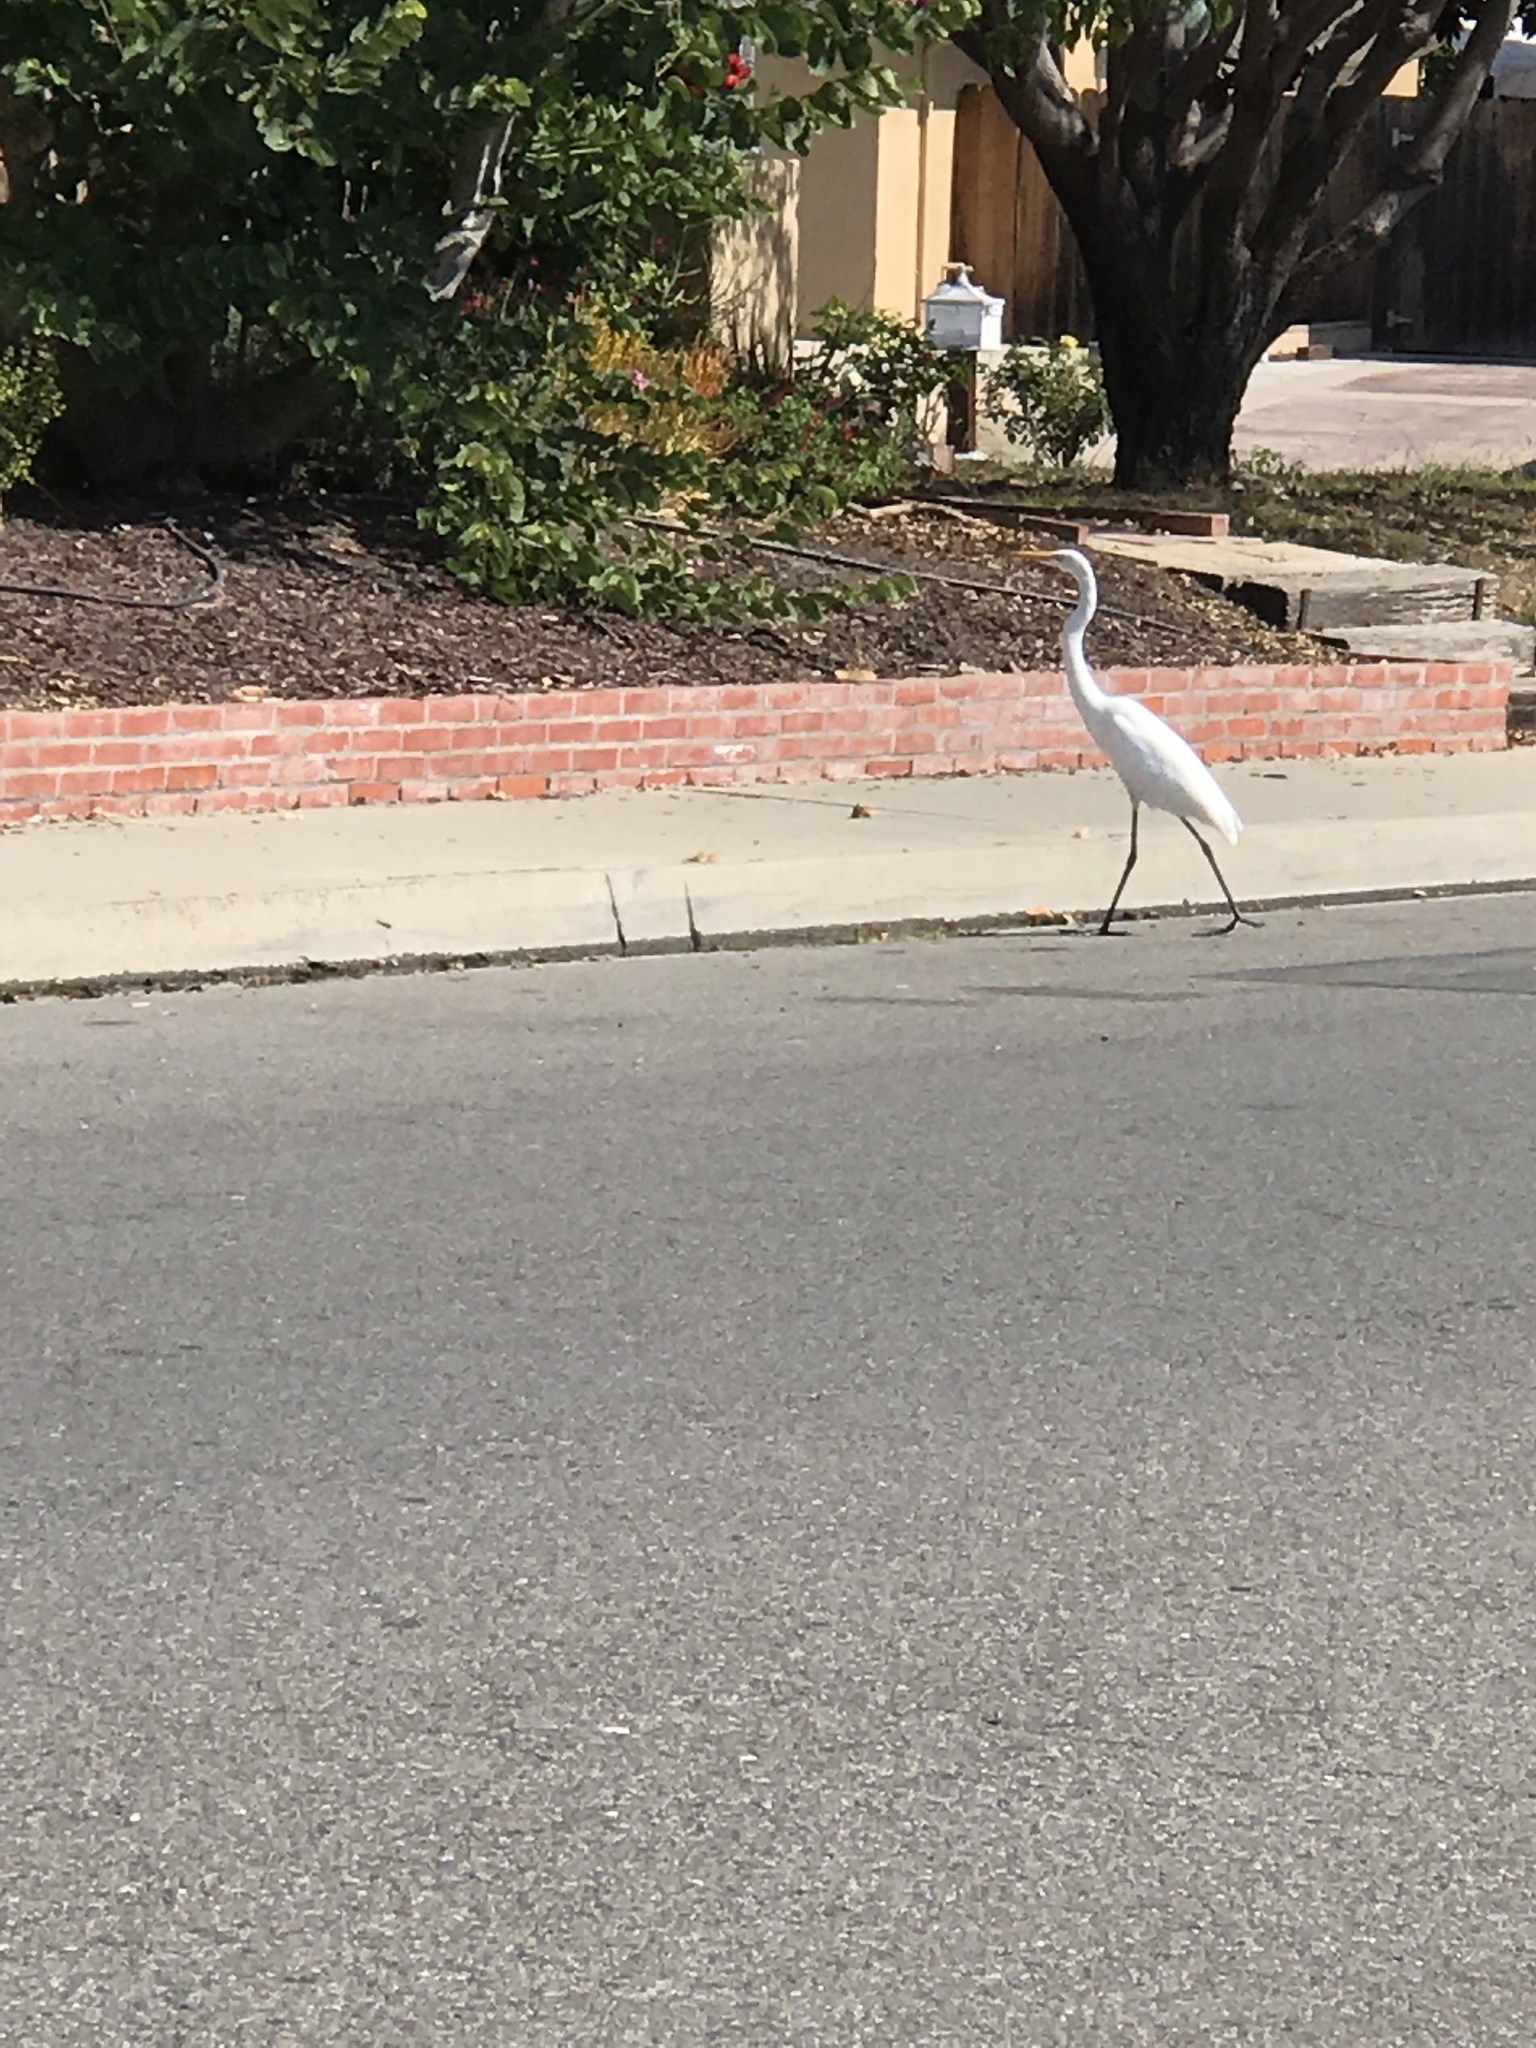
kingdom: Animalia
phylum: Chordata
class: Aves
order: Pelecaniformes
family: Ardeidae
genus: Ardea
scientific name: Ardea alba
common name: Great egret
